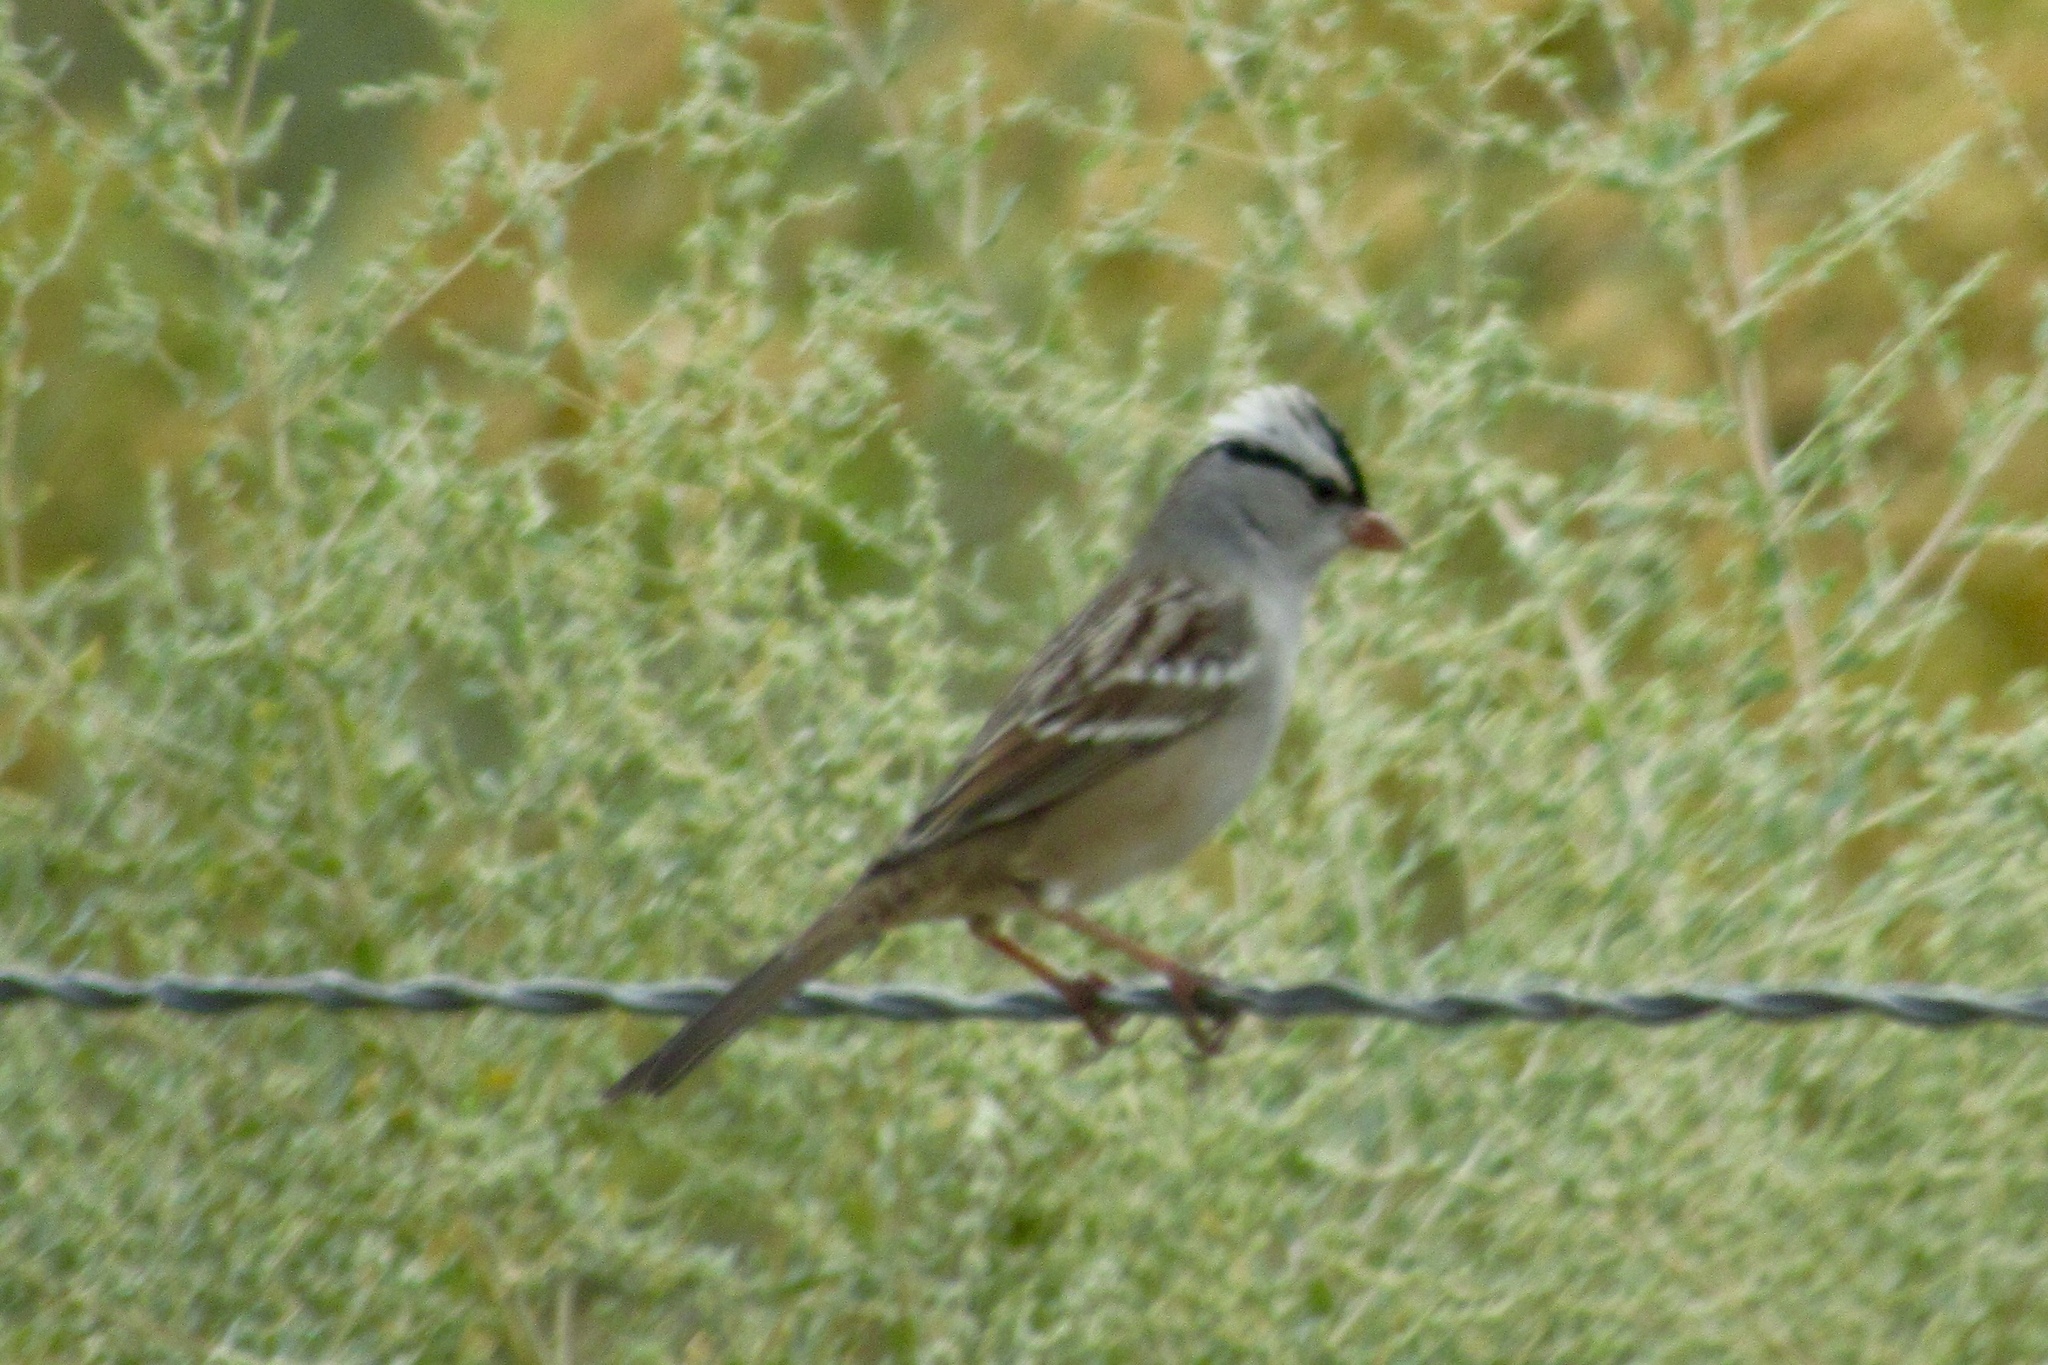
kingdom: Animalia
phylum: Chordata
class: Aves
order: Passeriformes
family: Passerellidae
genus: Zonotrichia
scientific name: Zonotrichia leucophrys
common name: White-crowned sparrow
